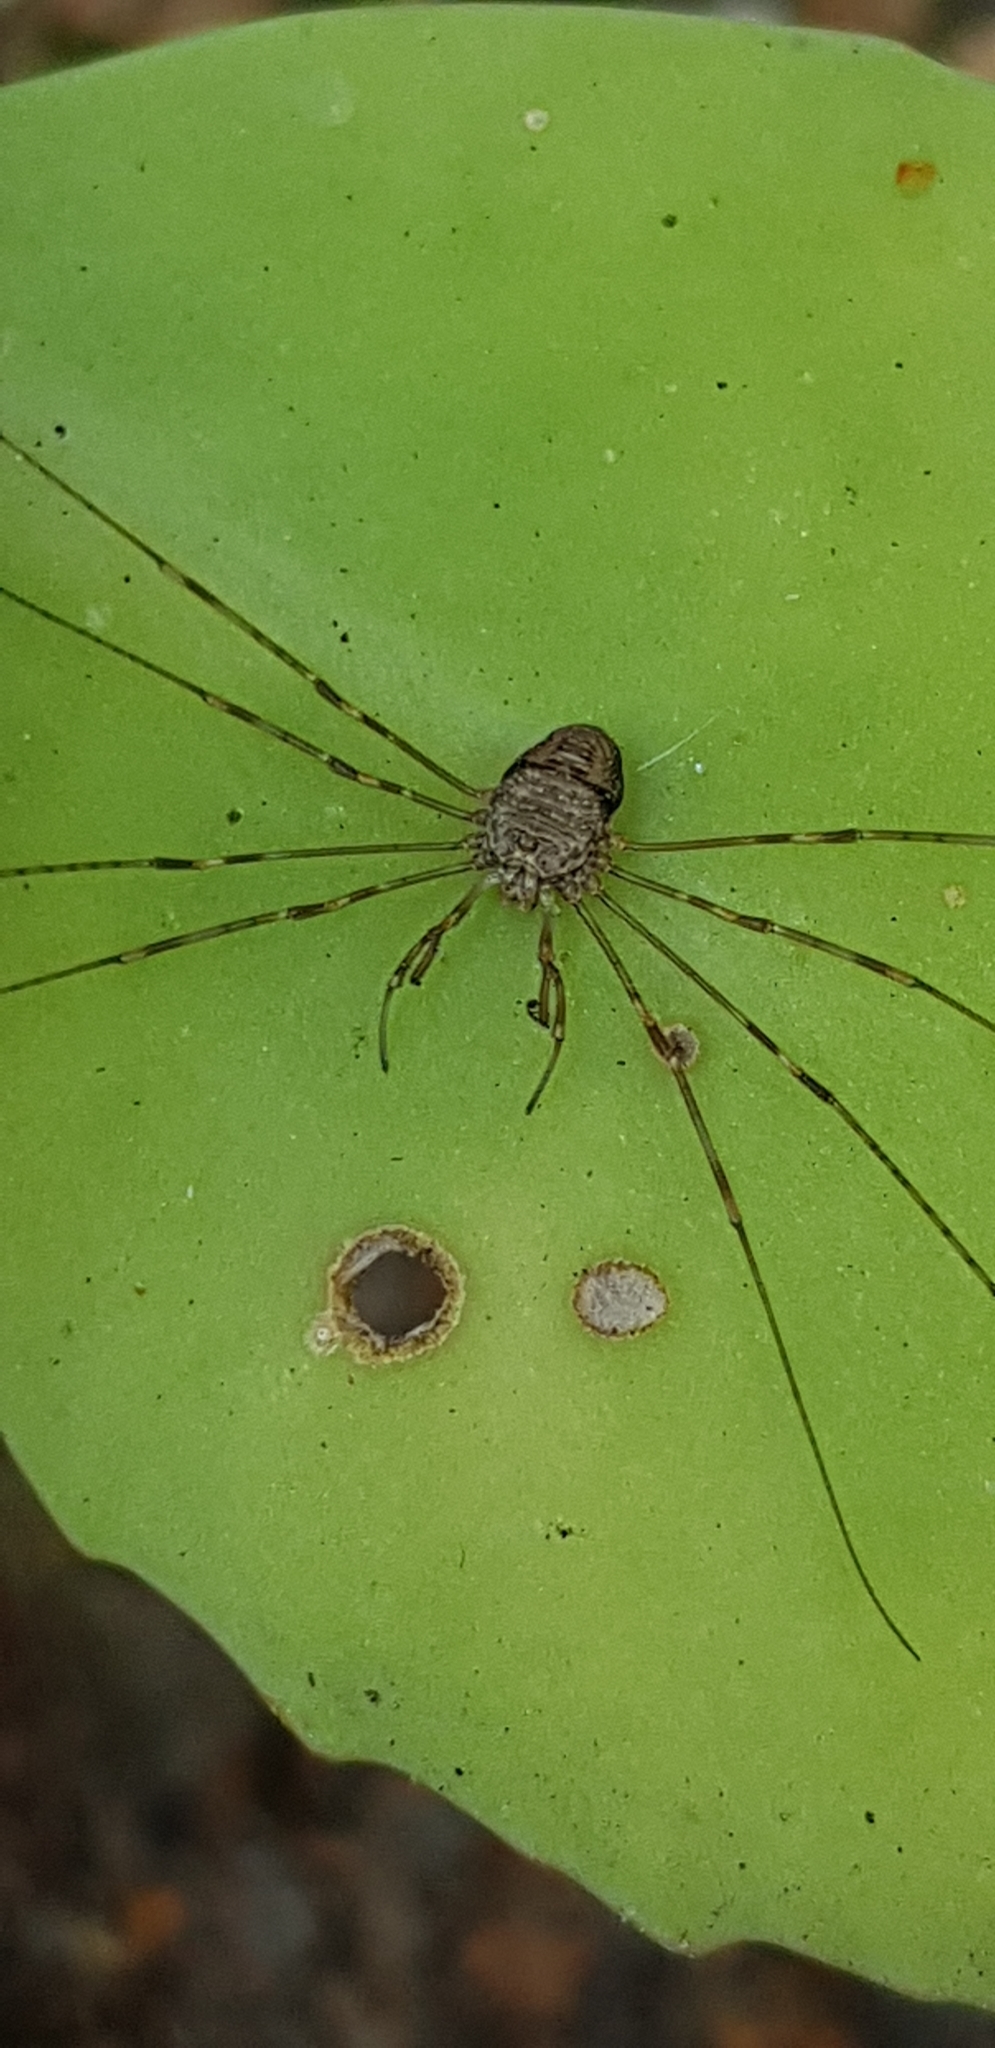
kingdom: Animalia
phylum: Arthropoda
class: Arachnida
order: Opiliones
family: Phalangiidae
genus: Dicranopalpus
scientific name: Dicranopalpus ramosus
